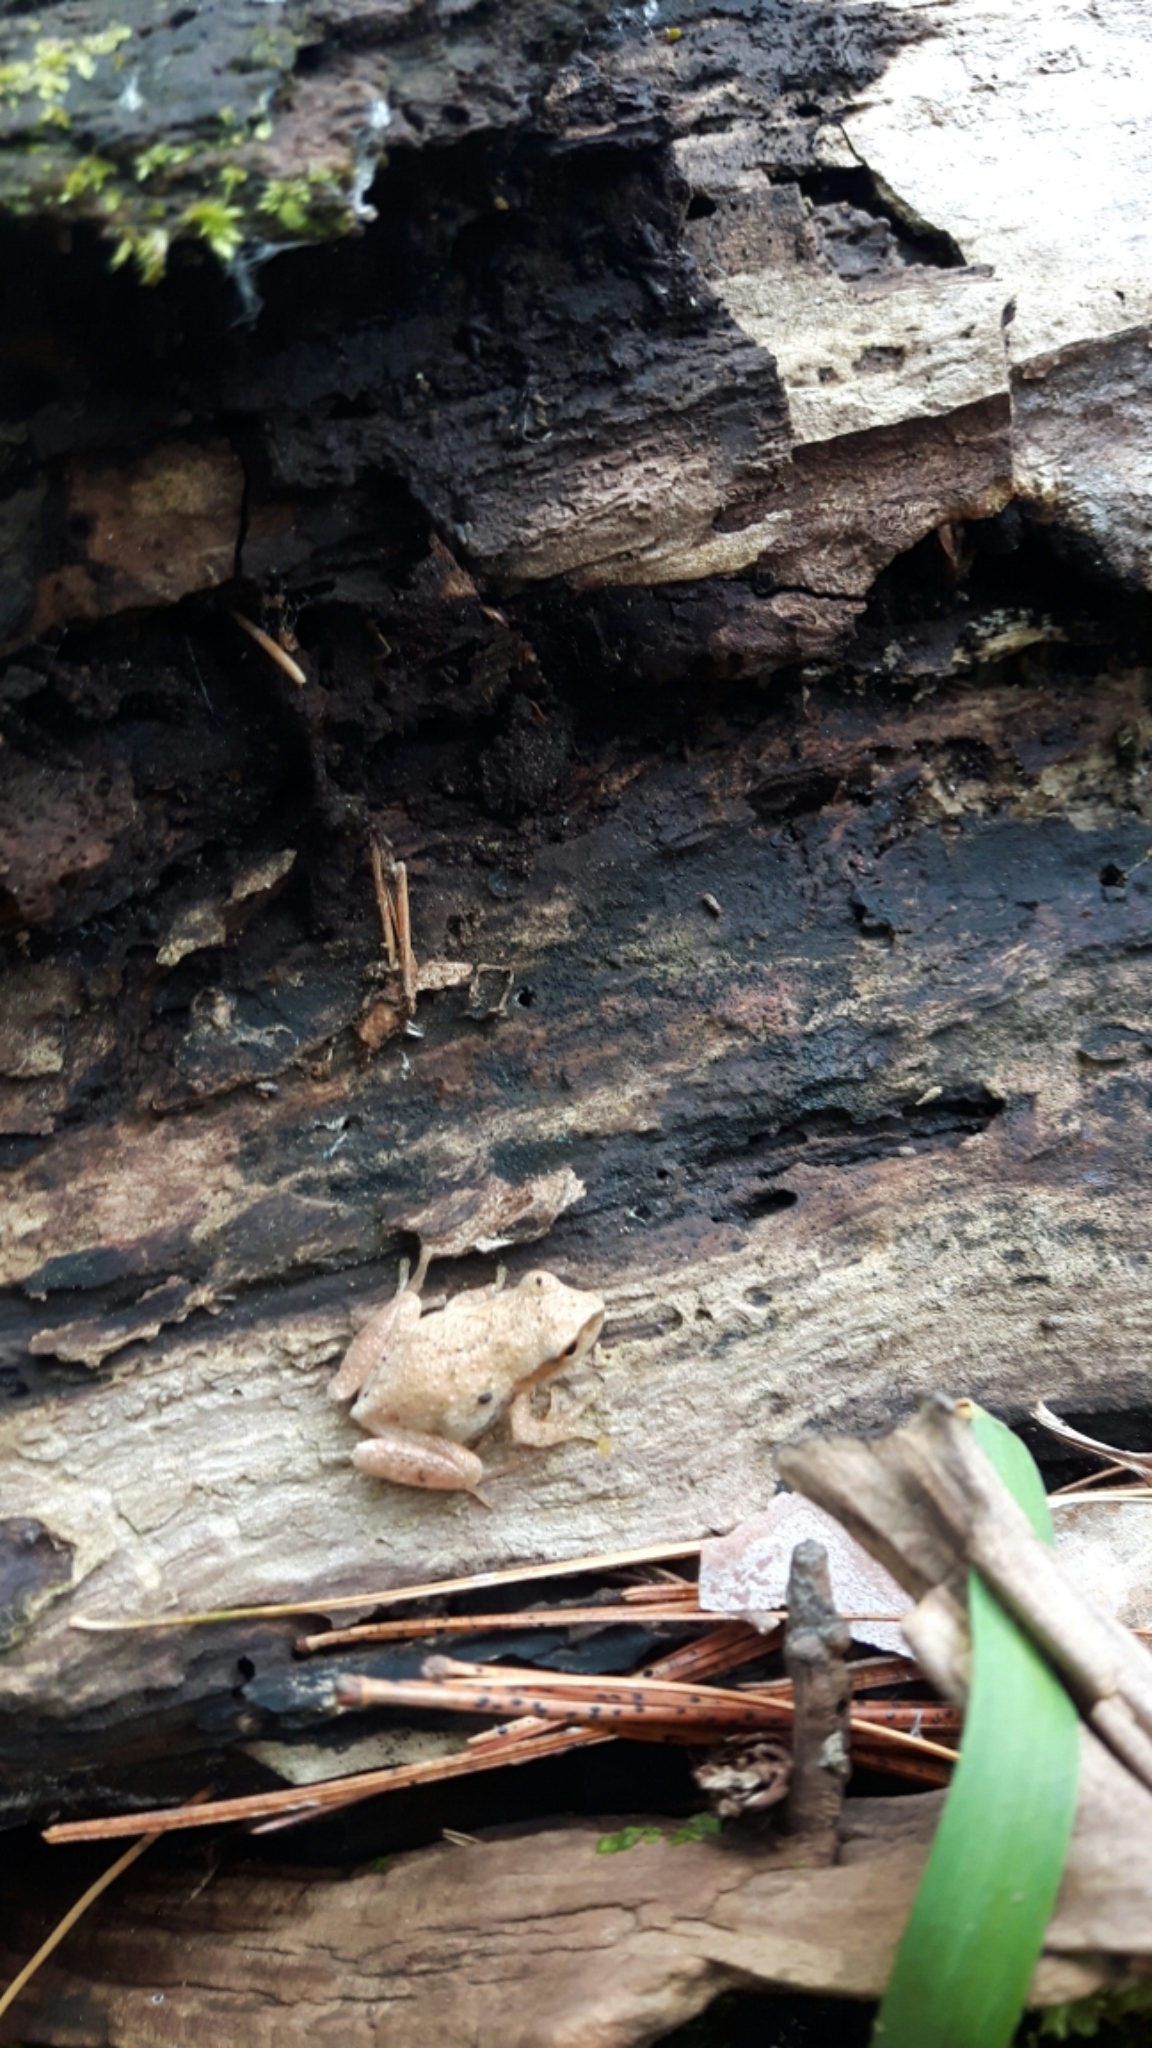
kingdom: Animalia
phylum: Chordata
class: Amphibia
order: Anura
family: Hylidae
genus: Pseudacris
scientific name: Pseudacris crucifer
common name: Spring peeper
